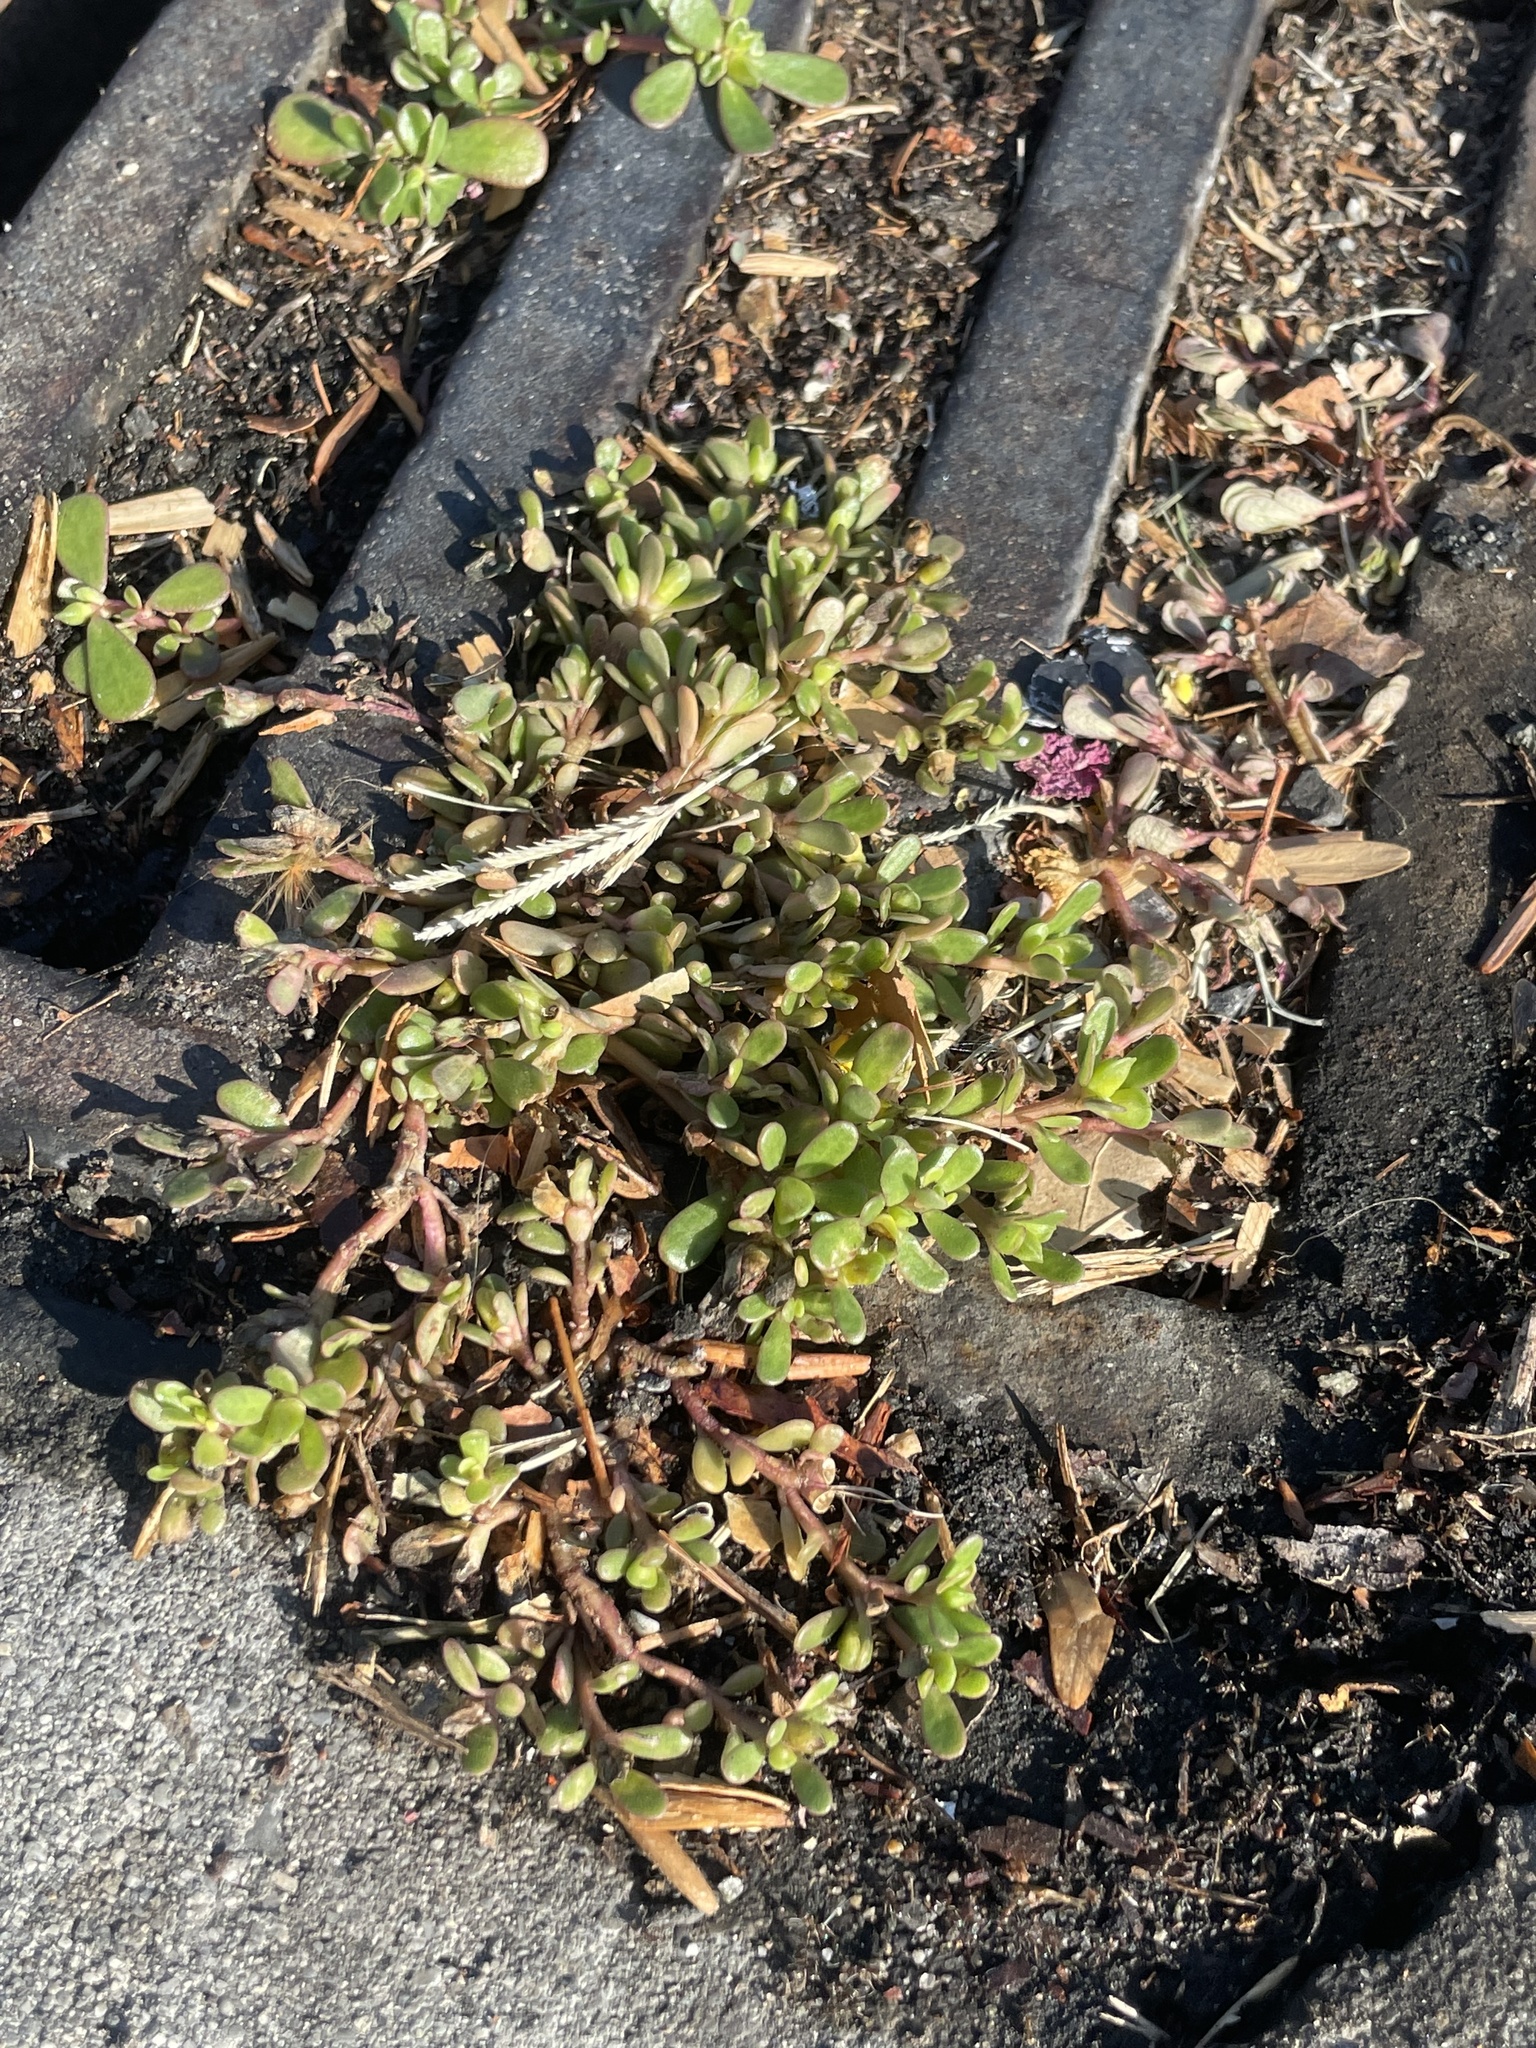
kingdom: Plantae
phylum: Tracheophyta
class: Magnoliopsida
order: Caryophyllales
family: Portulacaceae
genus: Portulaca
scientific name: Portulaca oleracea
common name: Common purslane
